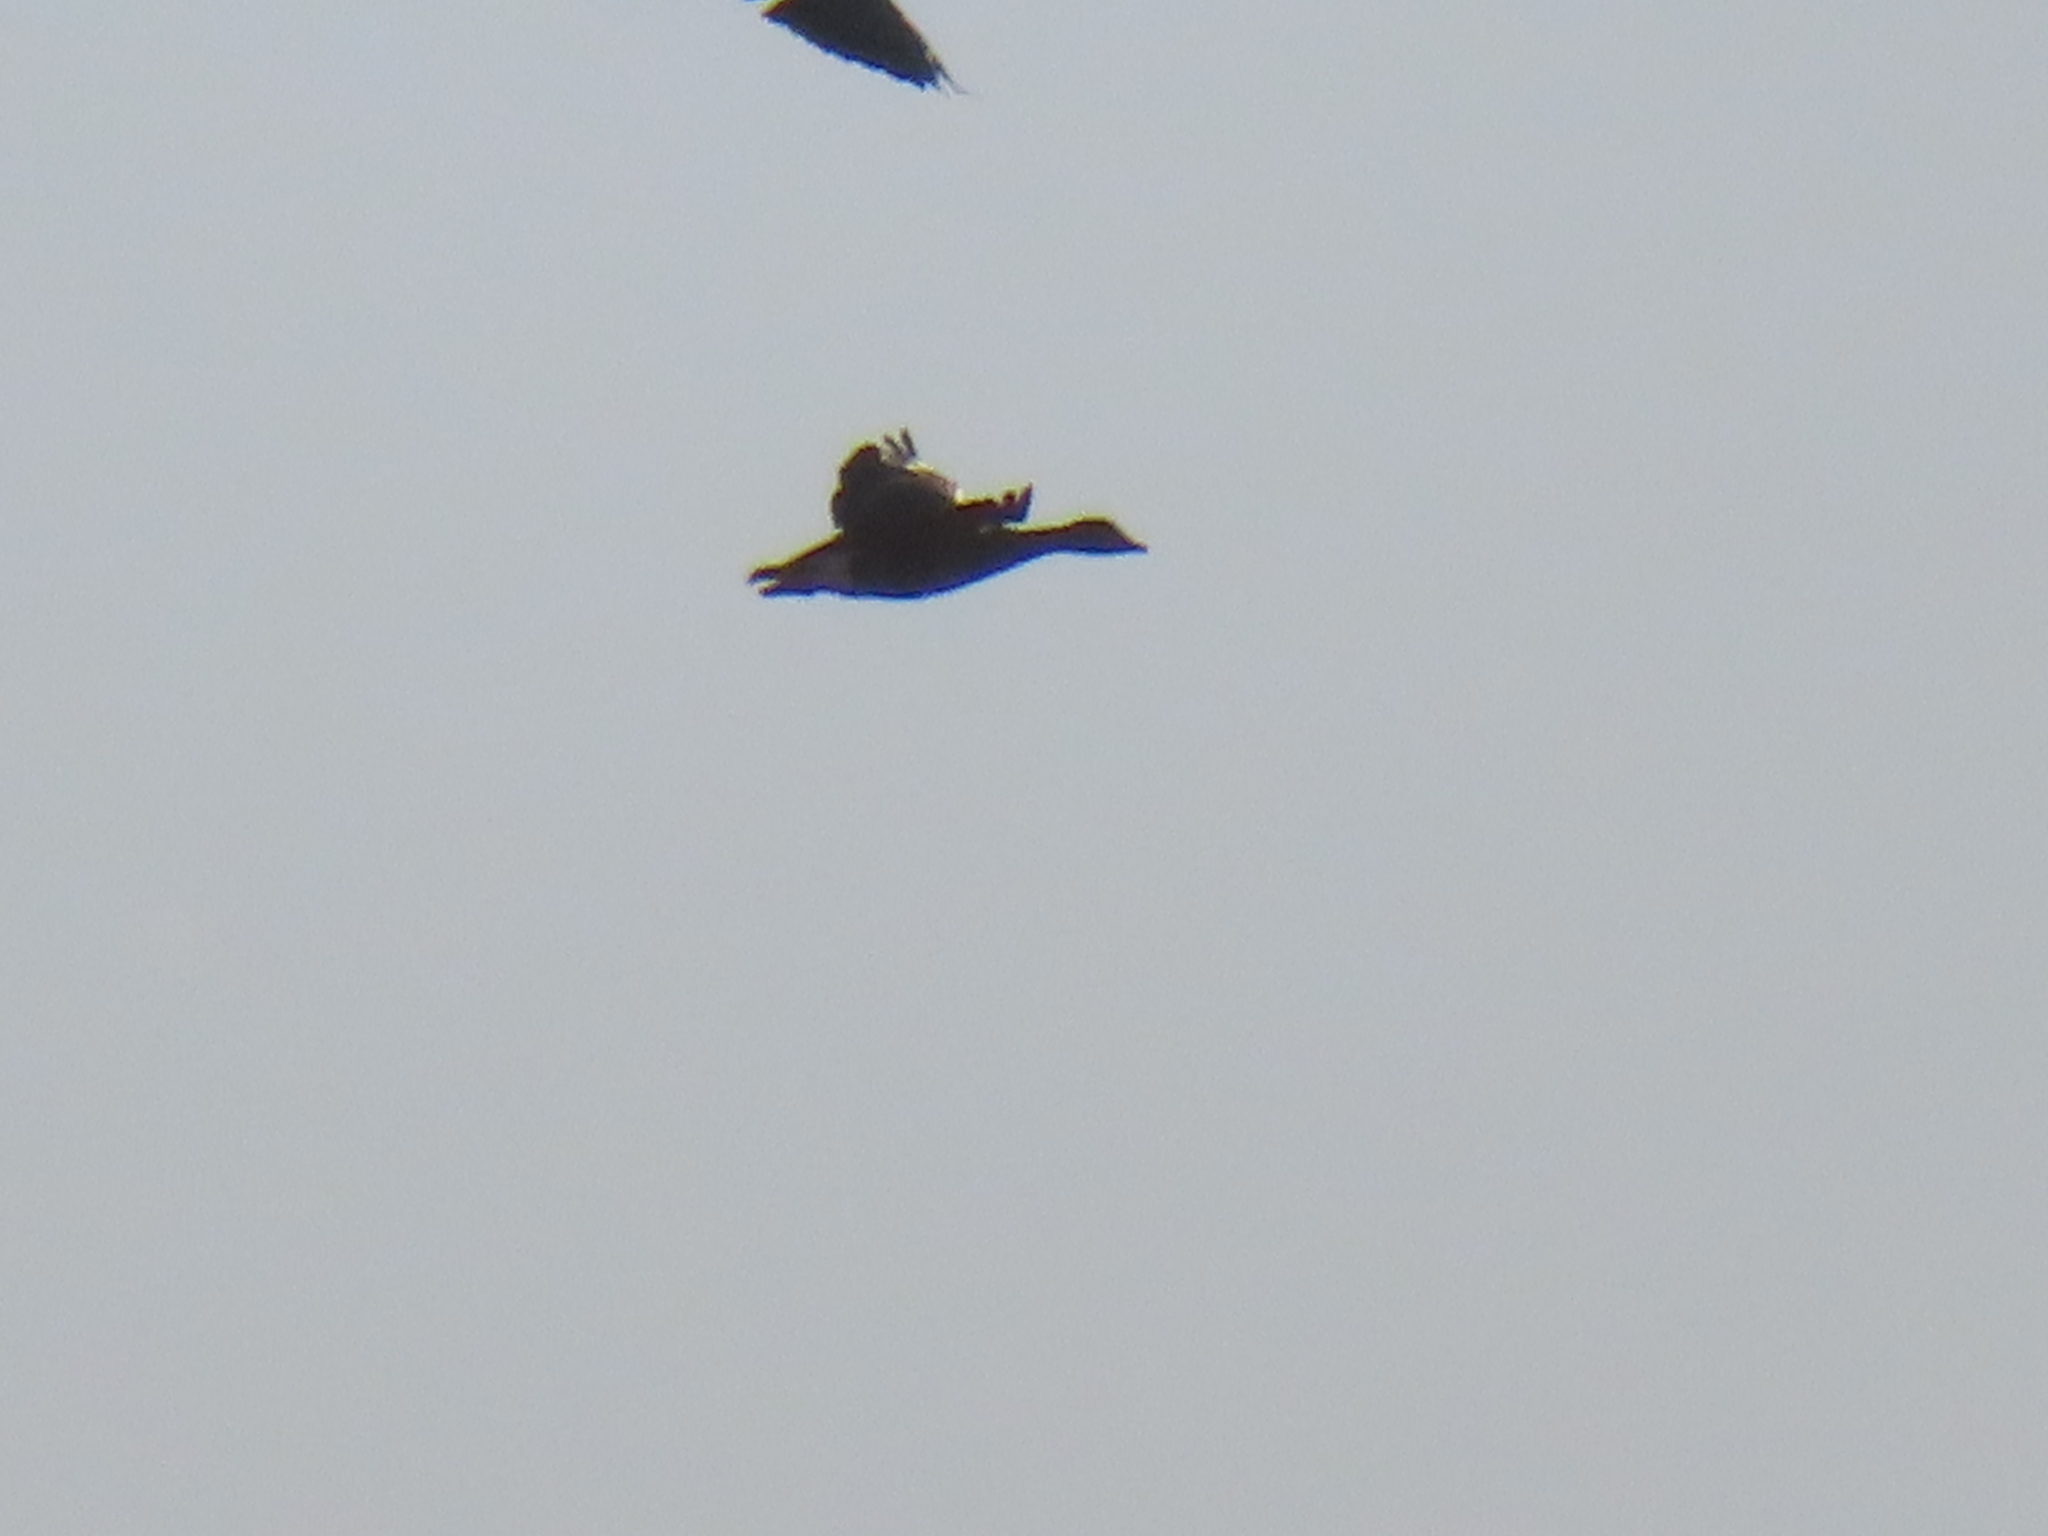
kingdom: Animalia
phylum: Chordata
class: Aves
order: Anseriformes
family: Anatidae
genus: Anser
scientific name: Anser caerulescens
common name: Snow goose
